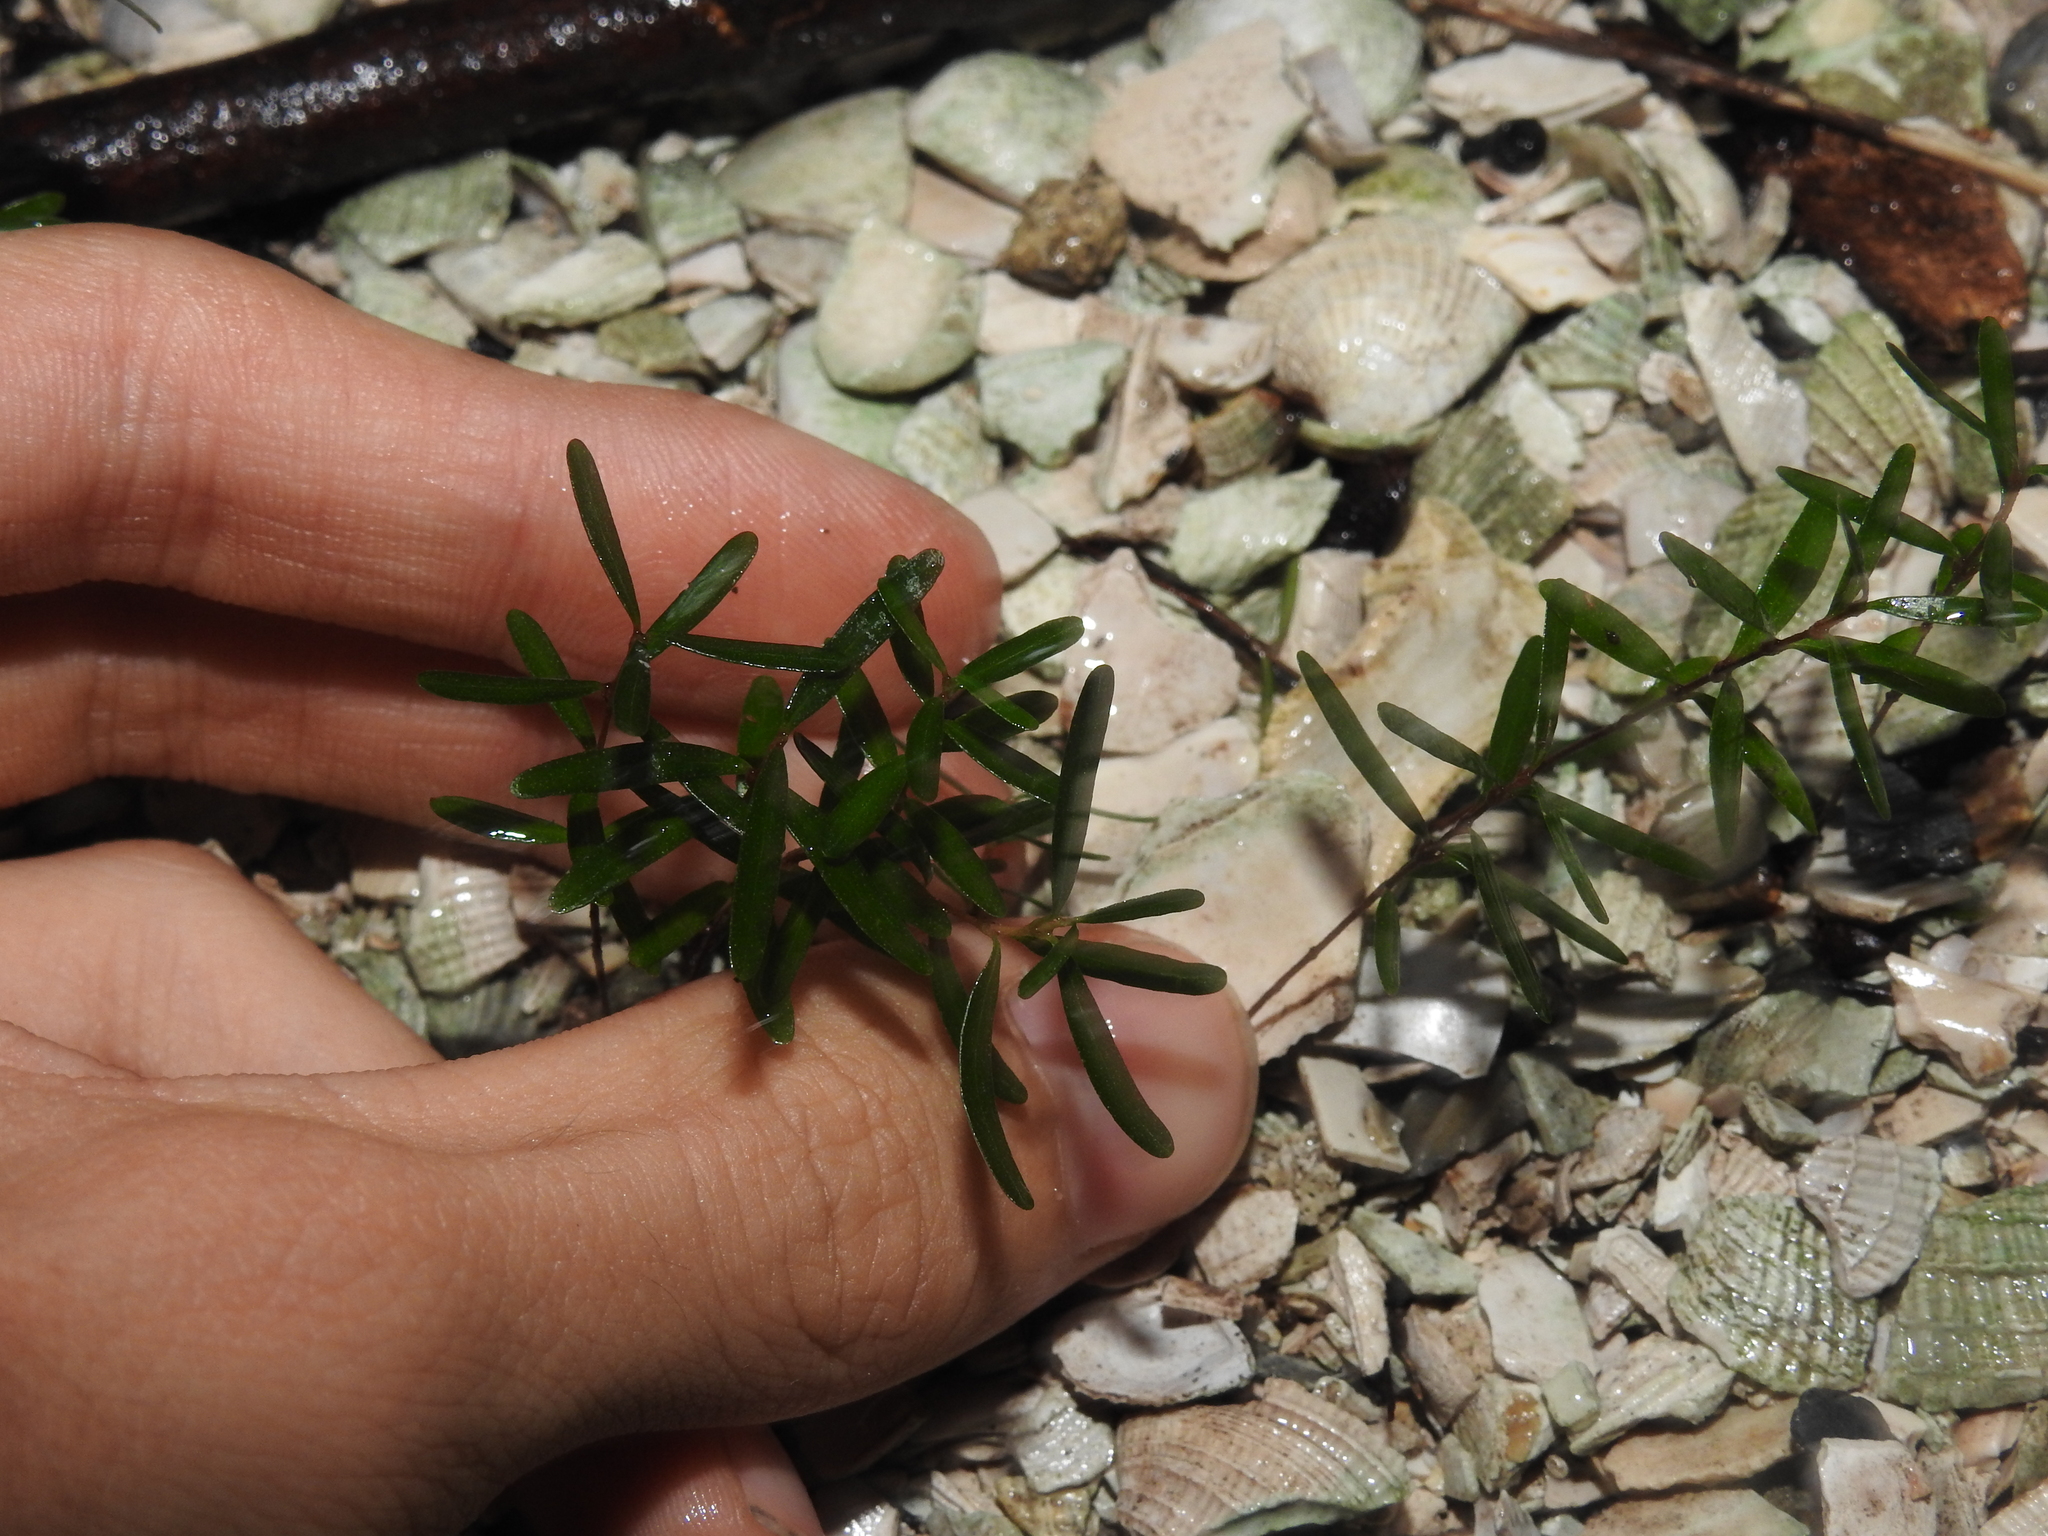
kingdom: Plantae
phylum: Tracheophyta
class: Magnoliopsida
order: Myrtales
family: Myrtaceae
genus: Eugenia
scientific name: Eugenia confusa
